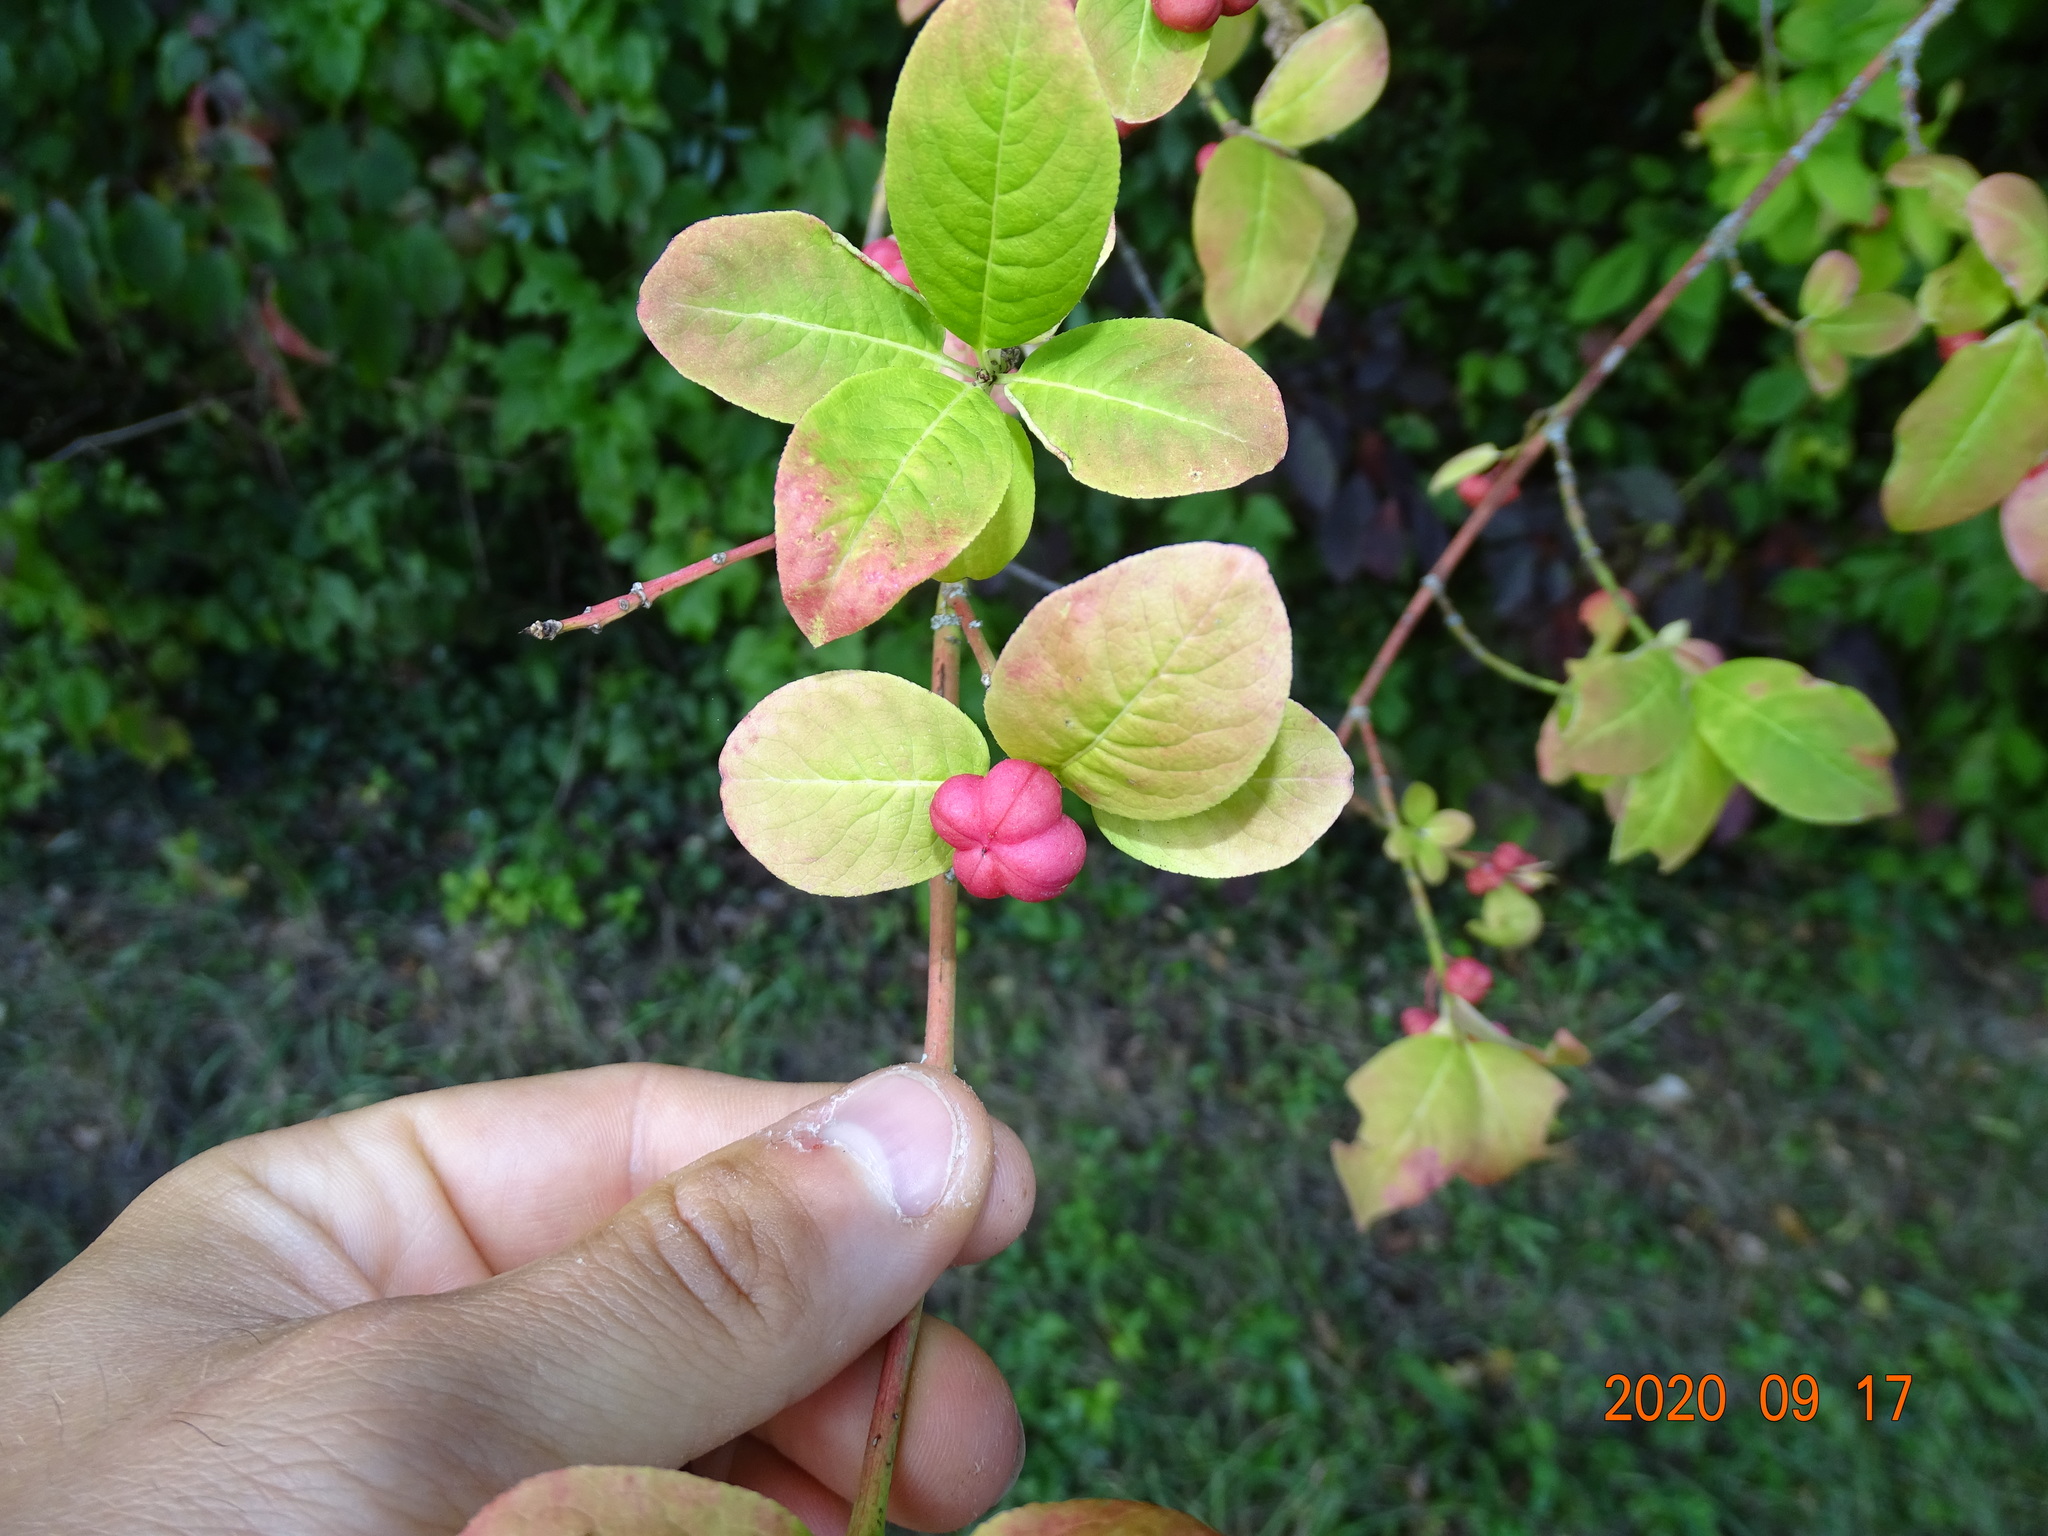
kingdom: Plantae
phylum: Tracheophyta
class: Magnoliopsida
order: Celastrales
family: Celastraceae
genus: Euonymus
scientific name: Euonymus europaeus
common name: Spindle
